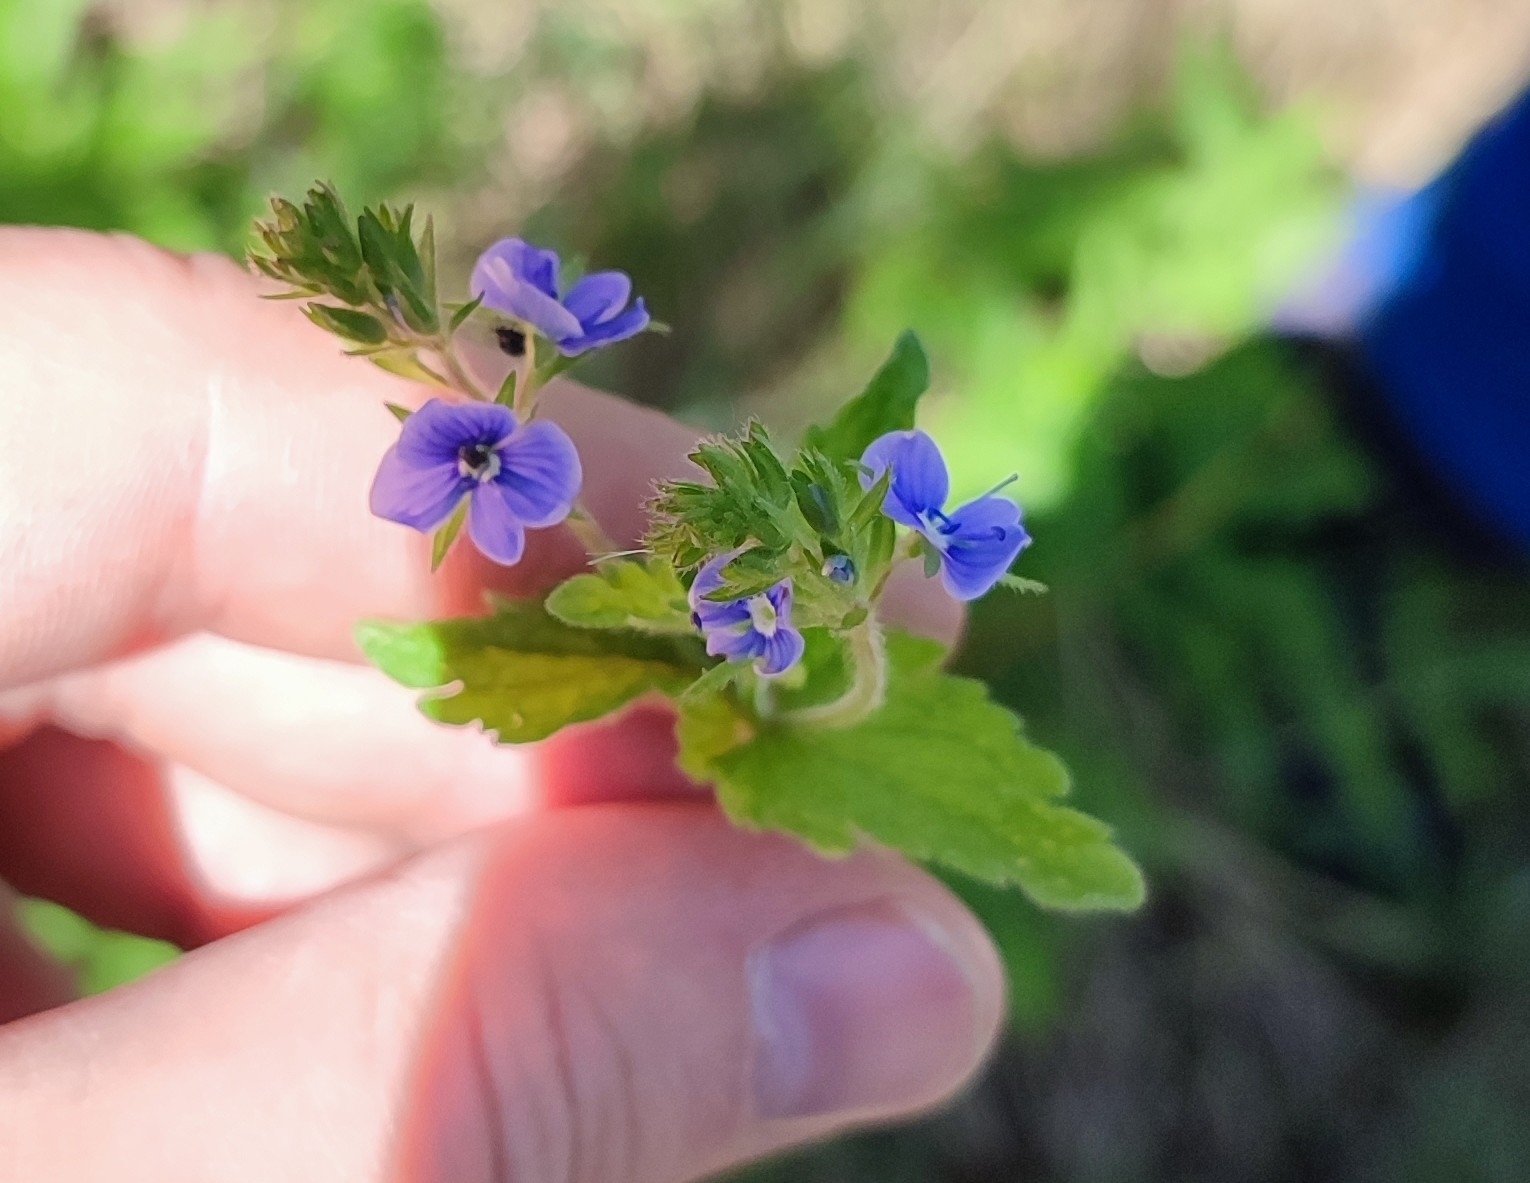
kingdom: Plantae
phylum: Tracheophyta
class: Magnoliopsida
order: Lamiales
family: Plantaginaceae
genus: Veronica
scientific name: Veronica teucrium
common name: Large speedwell
